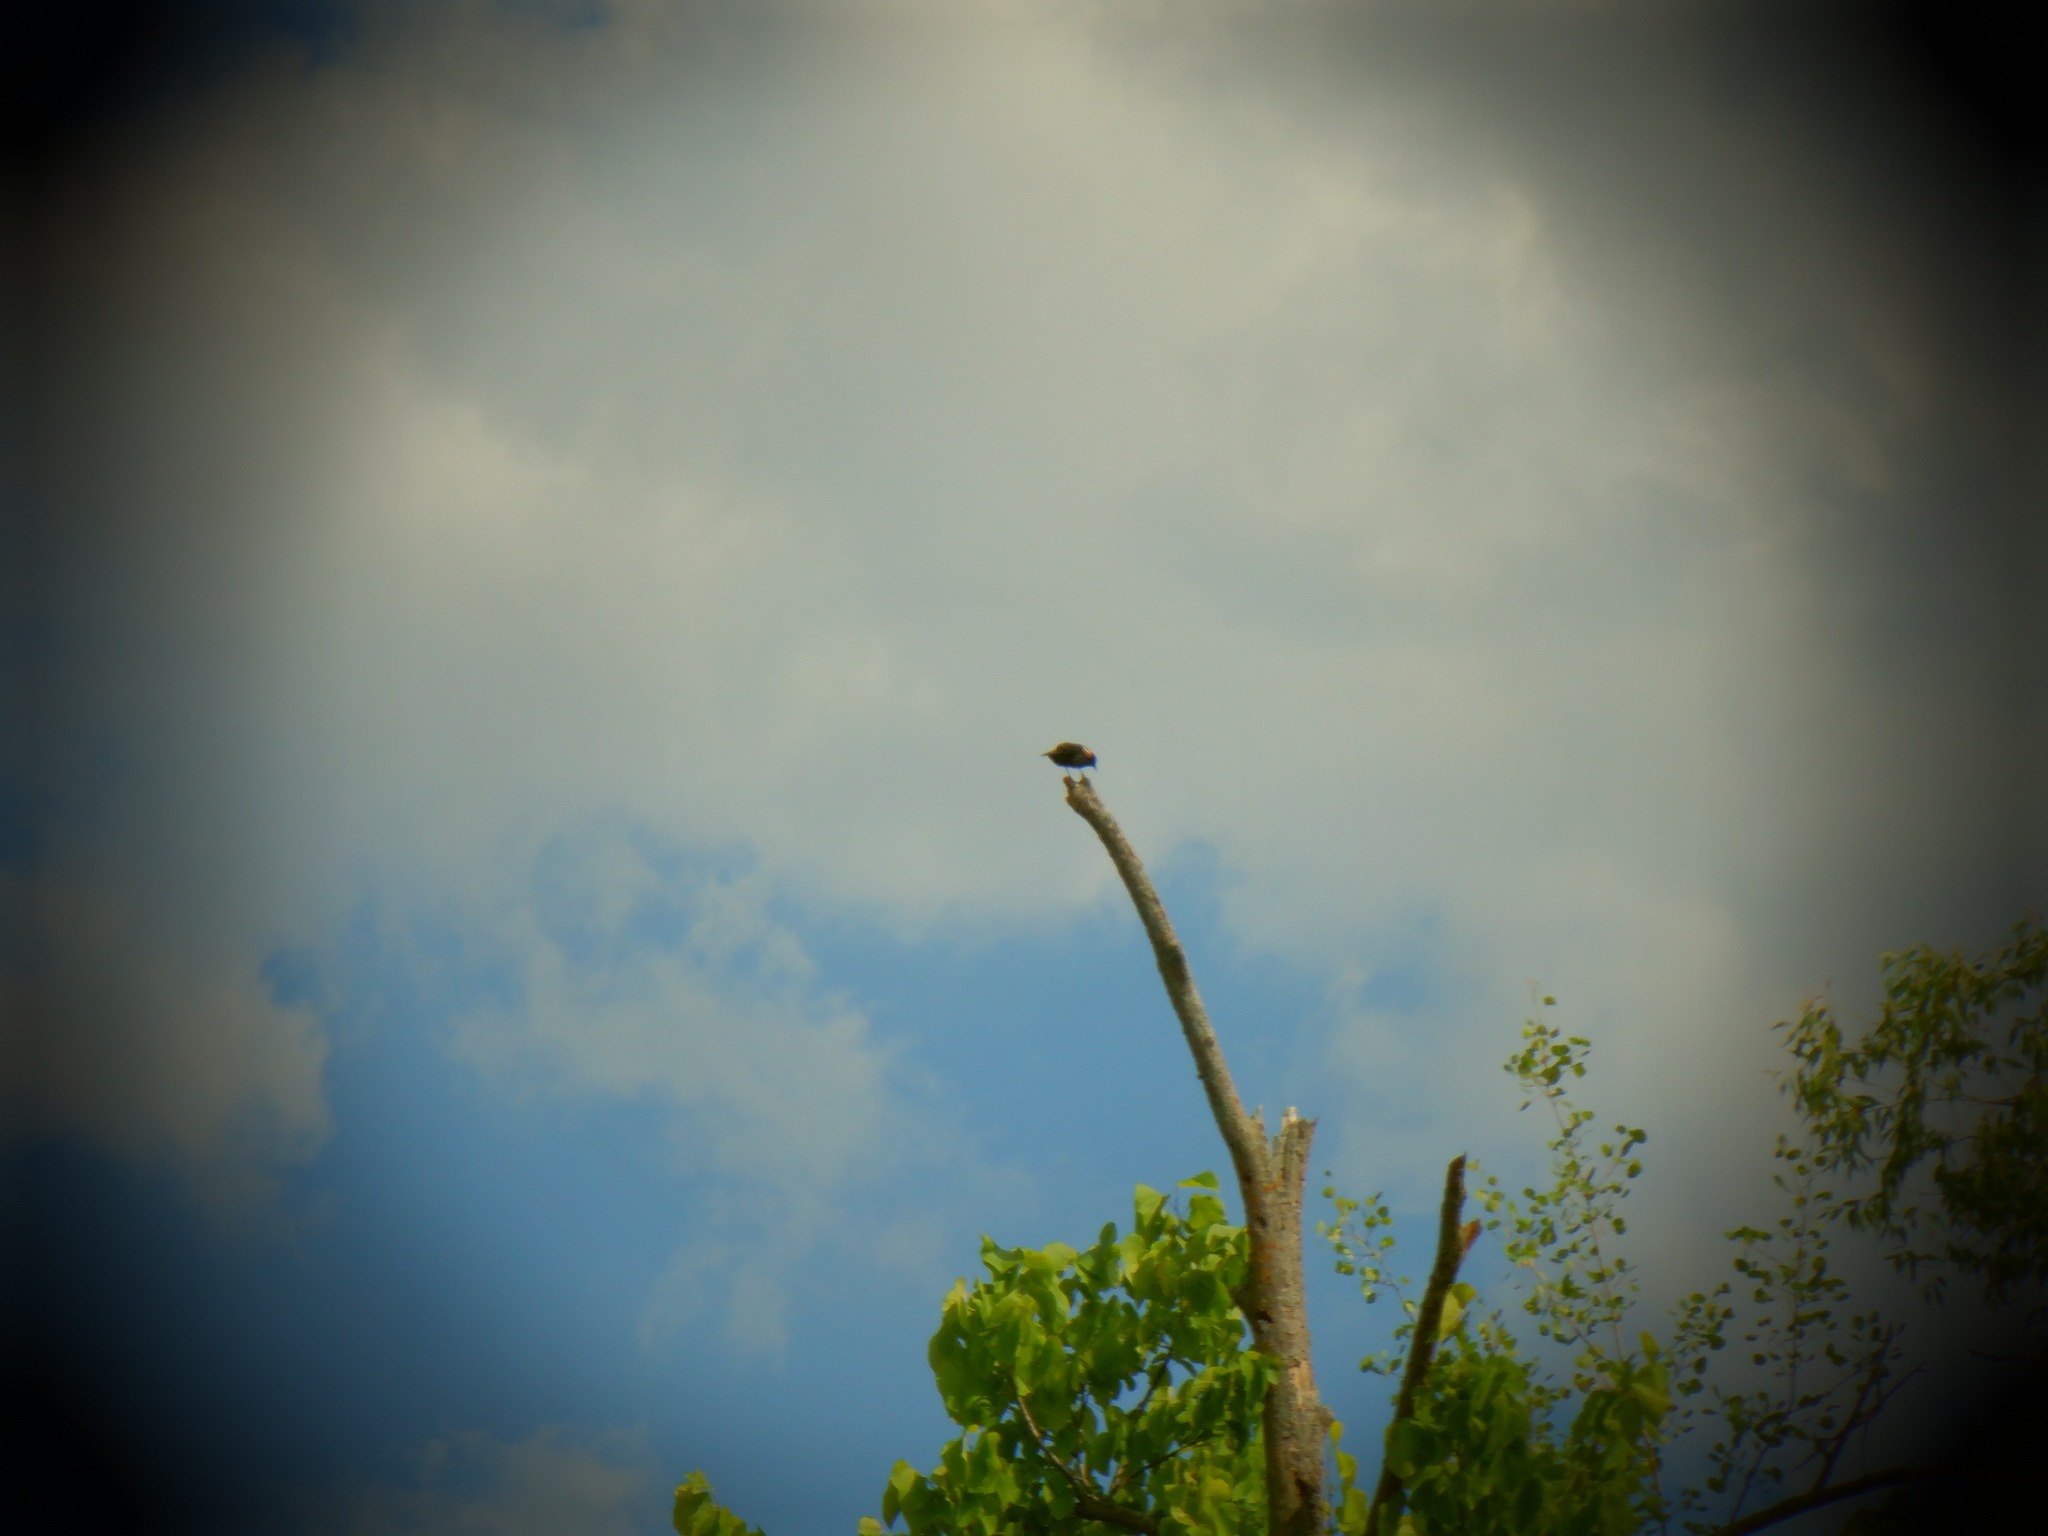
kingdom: Animalia
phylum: Chordata
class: Aves
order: Passeriformes
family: Icteridae
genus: Agelaius
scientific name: Agelaius phoeniceus
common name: Red-winged blackbird
